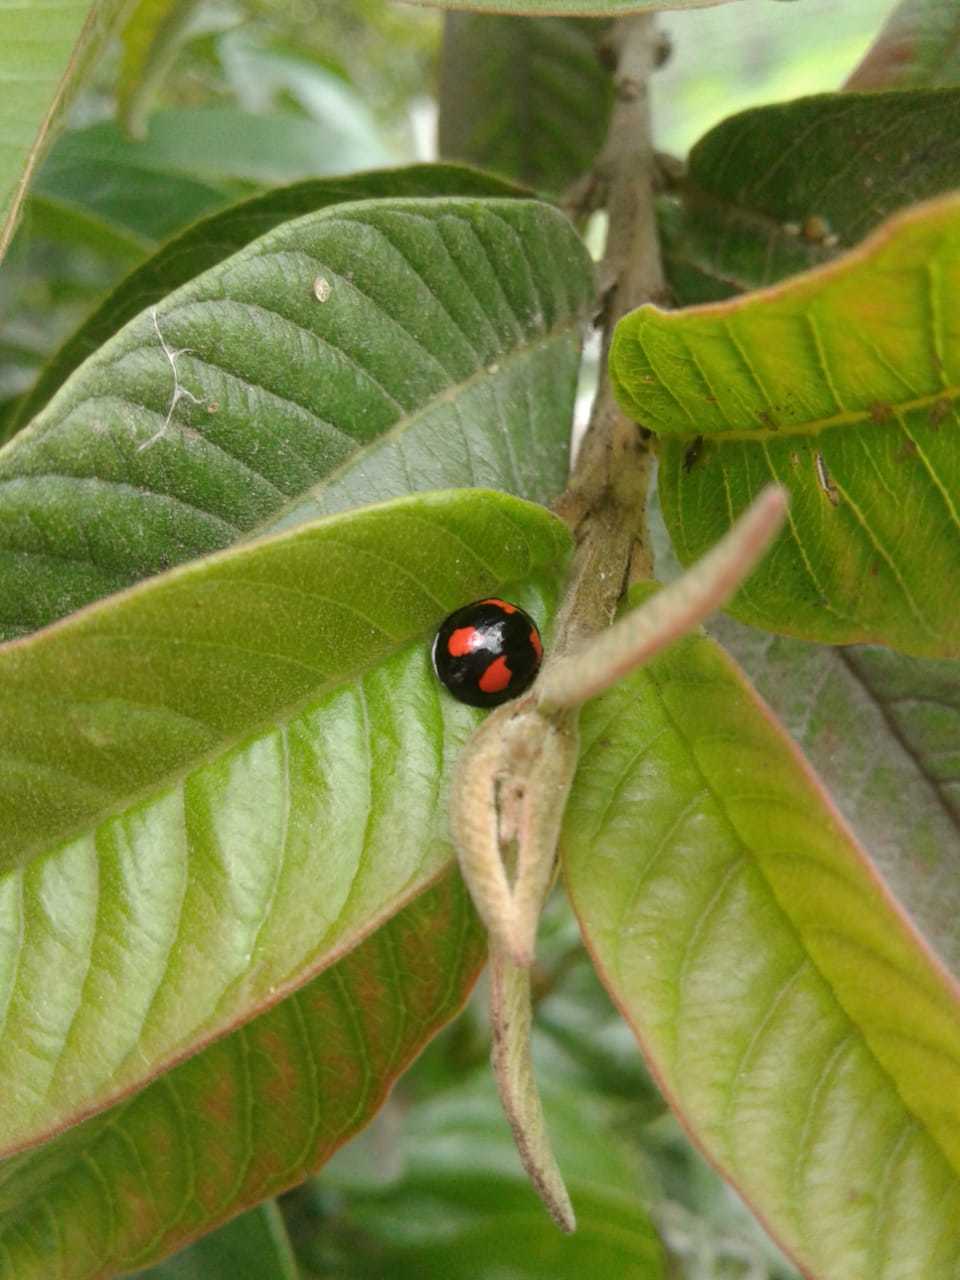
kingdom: Animalia
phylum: Arthropoda
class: Insecta
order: Coleoptera
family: Coccinellidae
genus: Cheilomenes
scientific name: Cheilomenes sexmaculata
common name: Ladybird beetle
